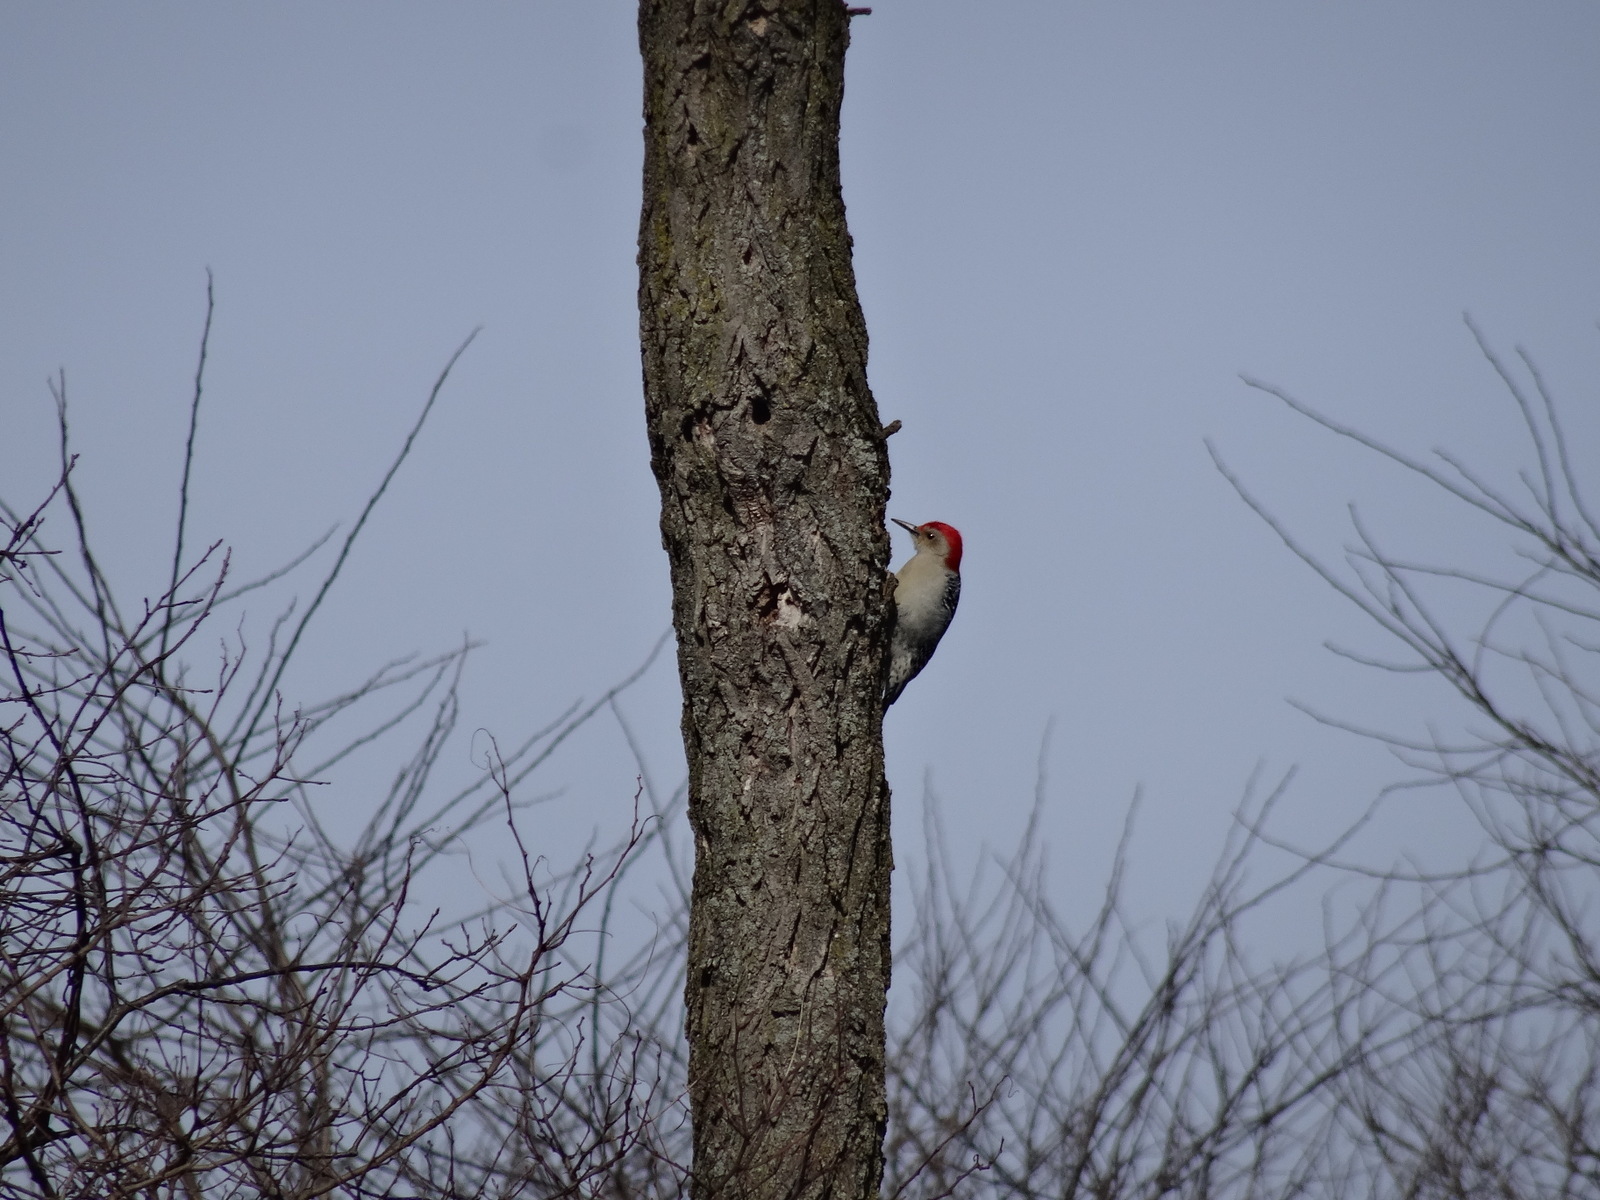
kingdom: Animalia
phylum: Chordata
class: Aves
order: Piciformes
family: Picidae
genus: Melanerpes
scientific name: Melanerpes carolinus
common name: Red-bellied woodpecker
